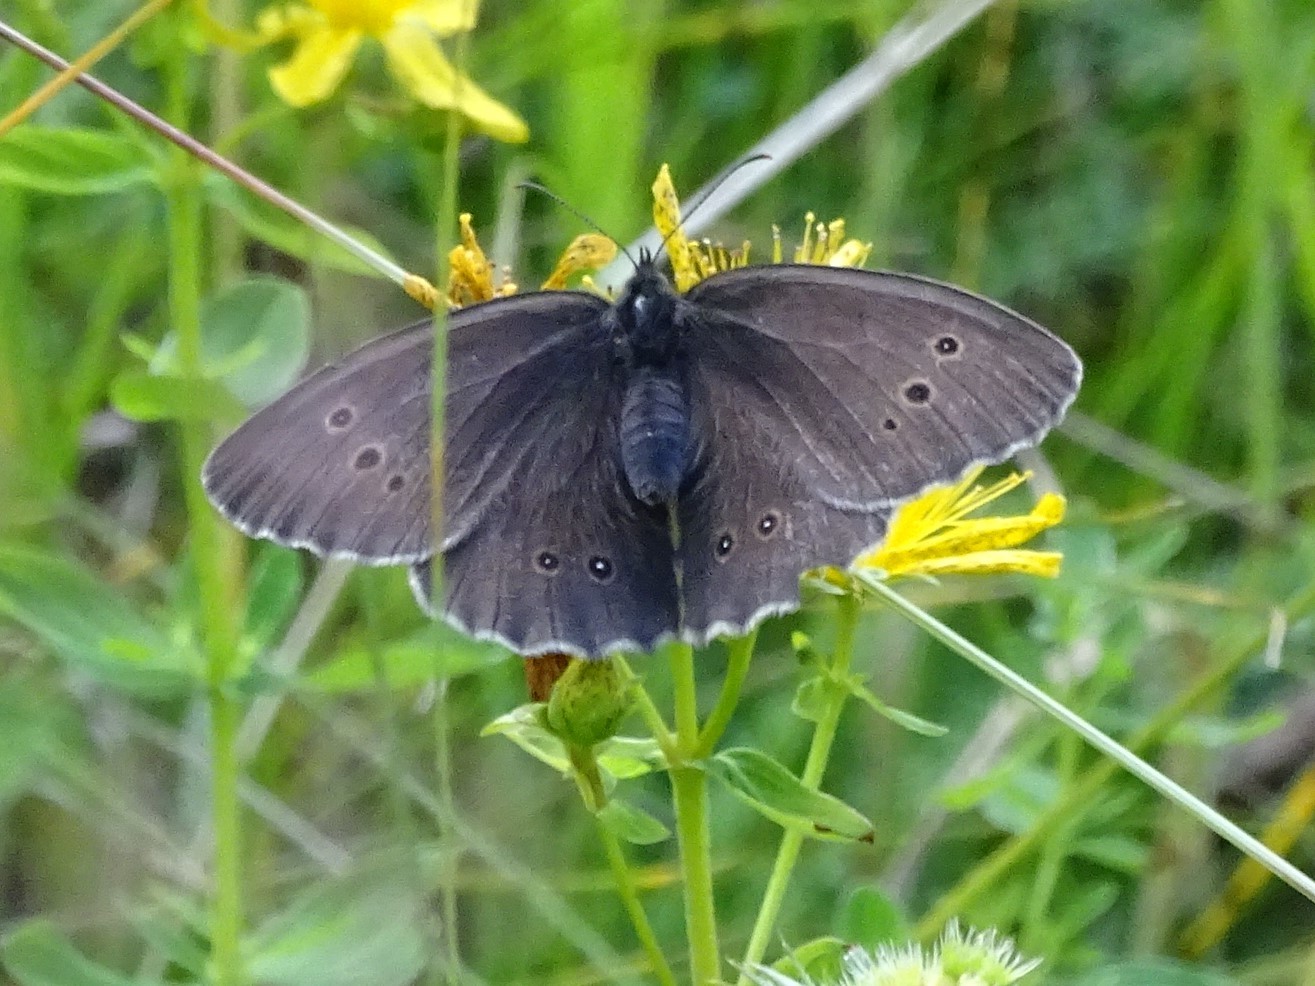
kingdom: Animalia
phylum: Arthropoda
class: Insecta
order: Lepidoptera
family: Nymphalidae
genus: Aphantopus
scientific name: Aphantopus hyperantus
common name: Ringlet
